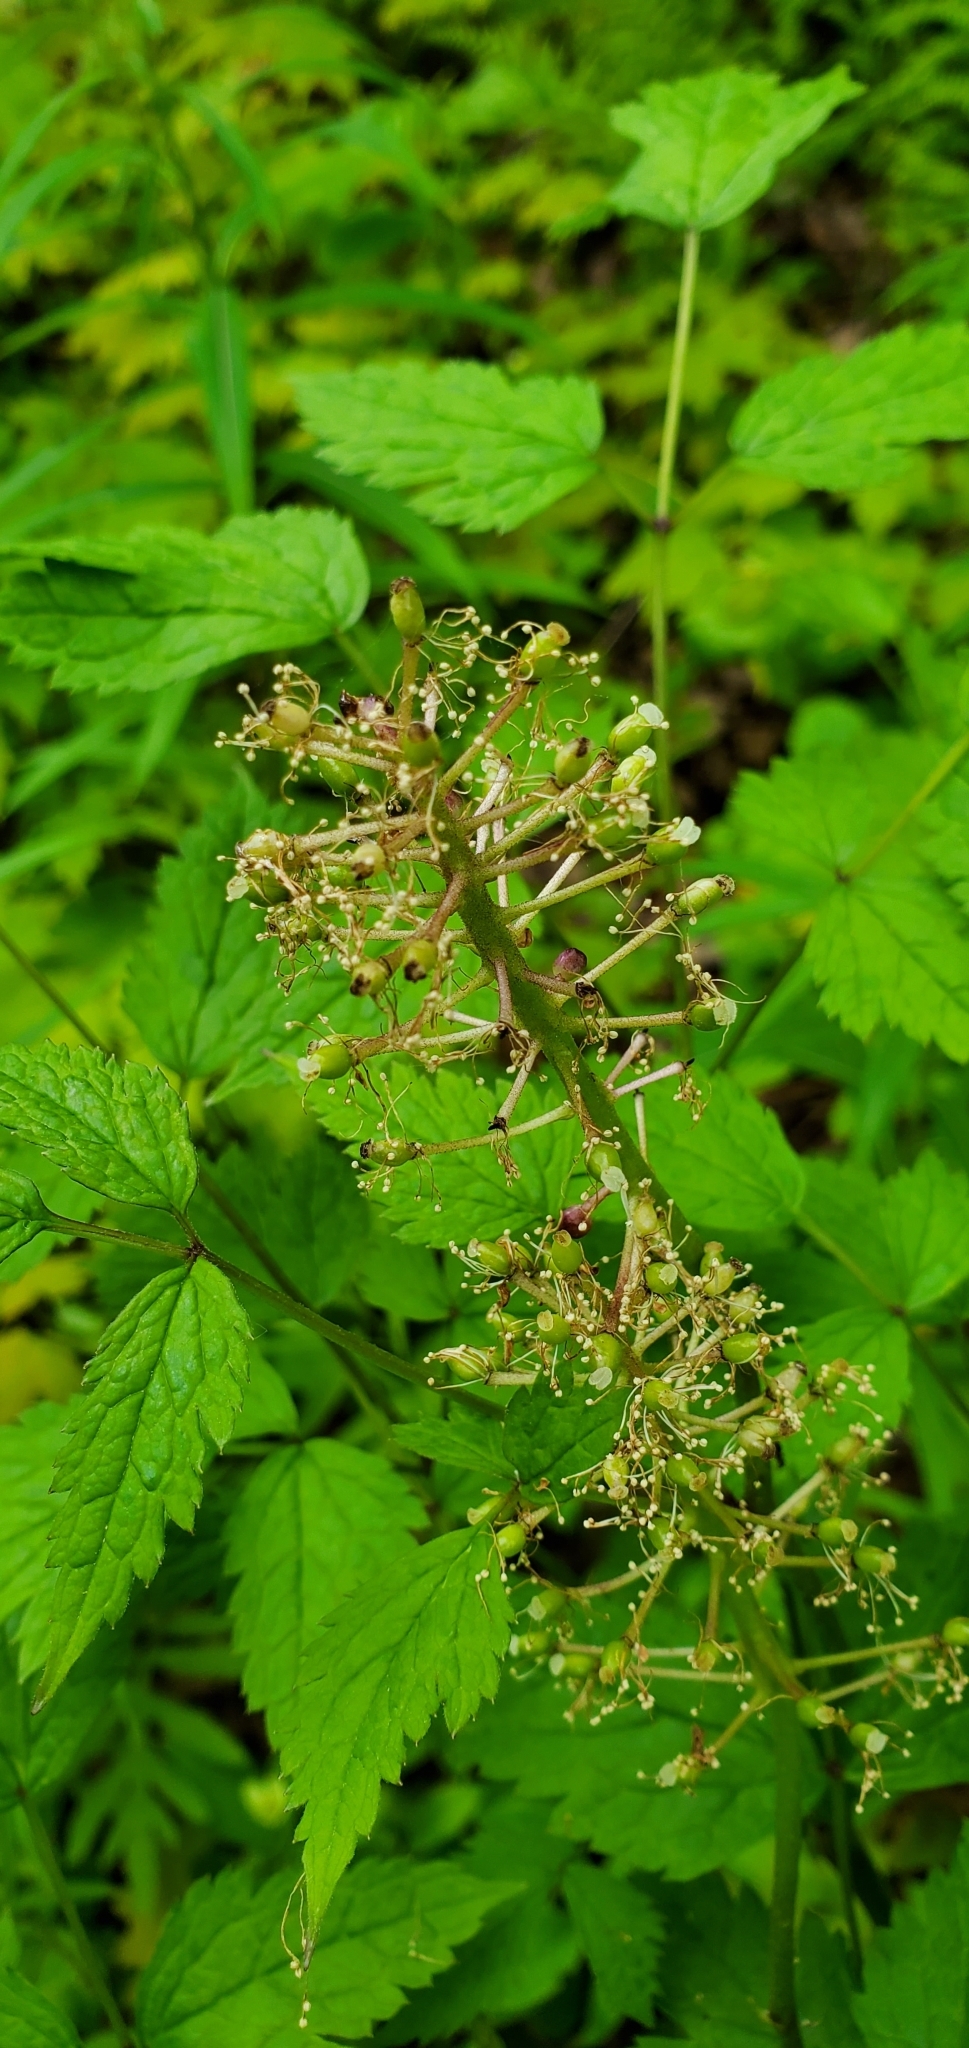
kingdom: Plantae
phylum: Tracheophyta
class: Magnoliopsida
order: Ranunculales
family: Ranunculaceae
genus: Actaea
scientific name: Actaea rubra
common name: Red baneberry
